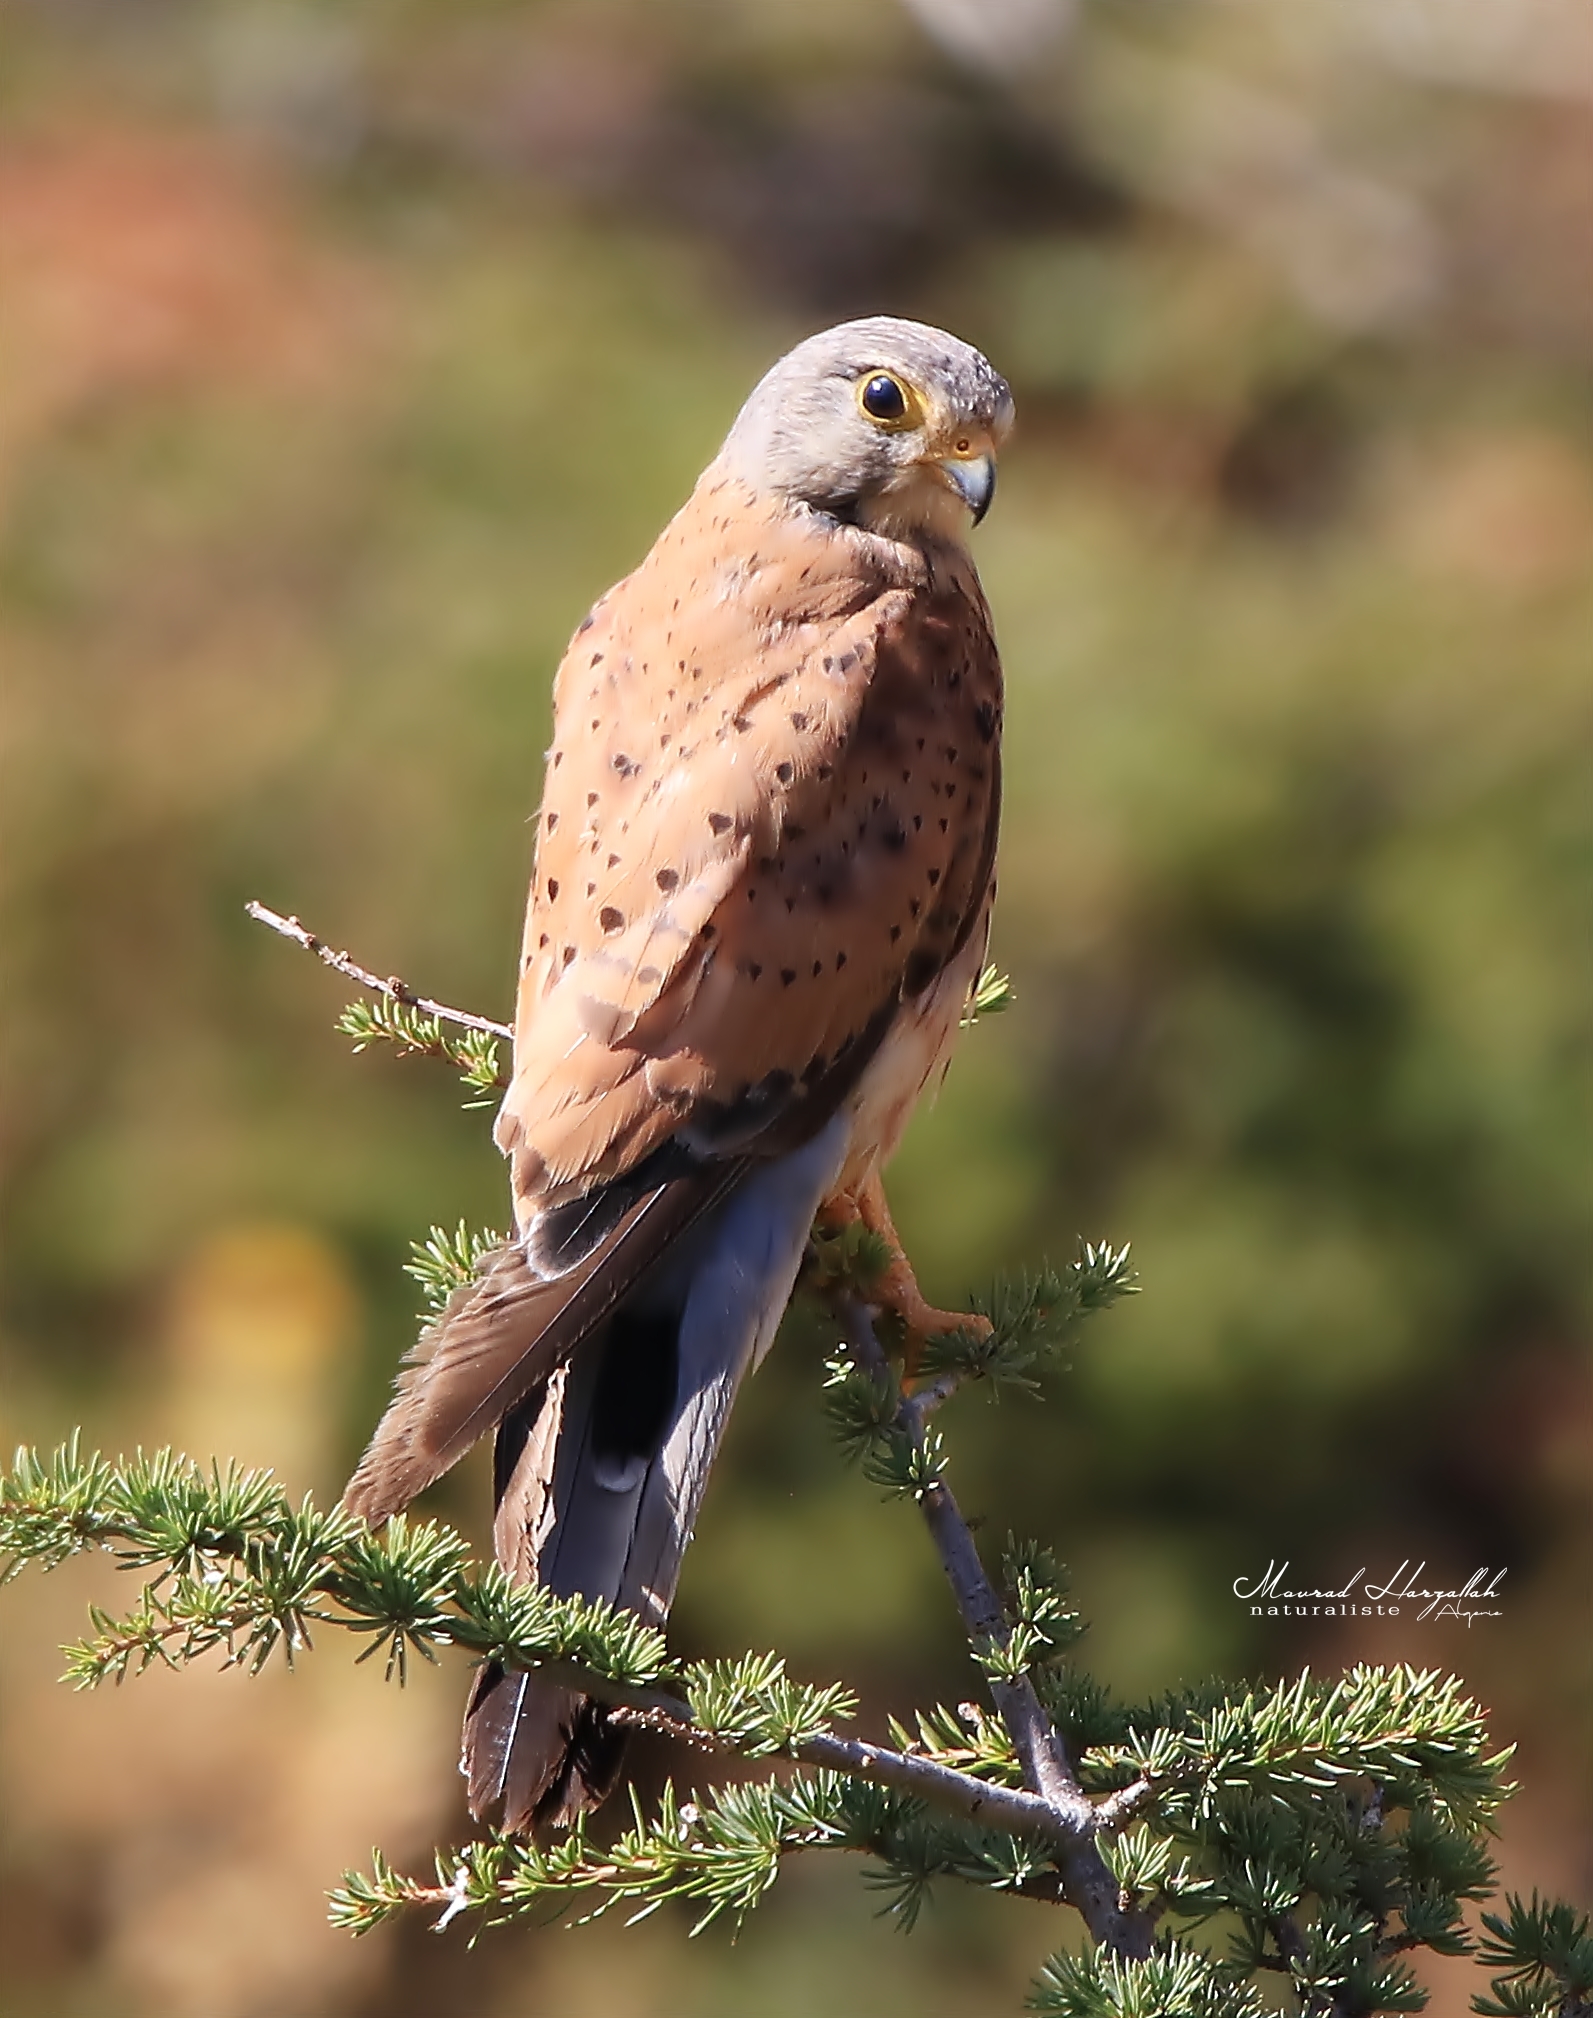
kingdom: Animalia
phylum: Chordata
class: Aves
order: Falconiformes
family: Falconidae
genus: Falco
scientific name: Falco tinnunculus
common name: Common kestrel
